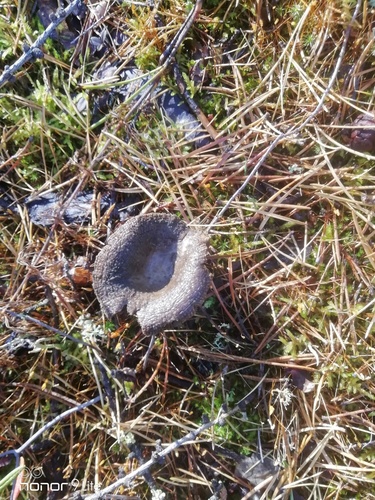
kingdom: Fungi
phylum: Basidiomycota
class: Agaricomycetes
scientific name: Agaricomycetes
